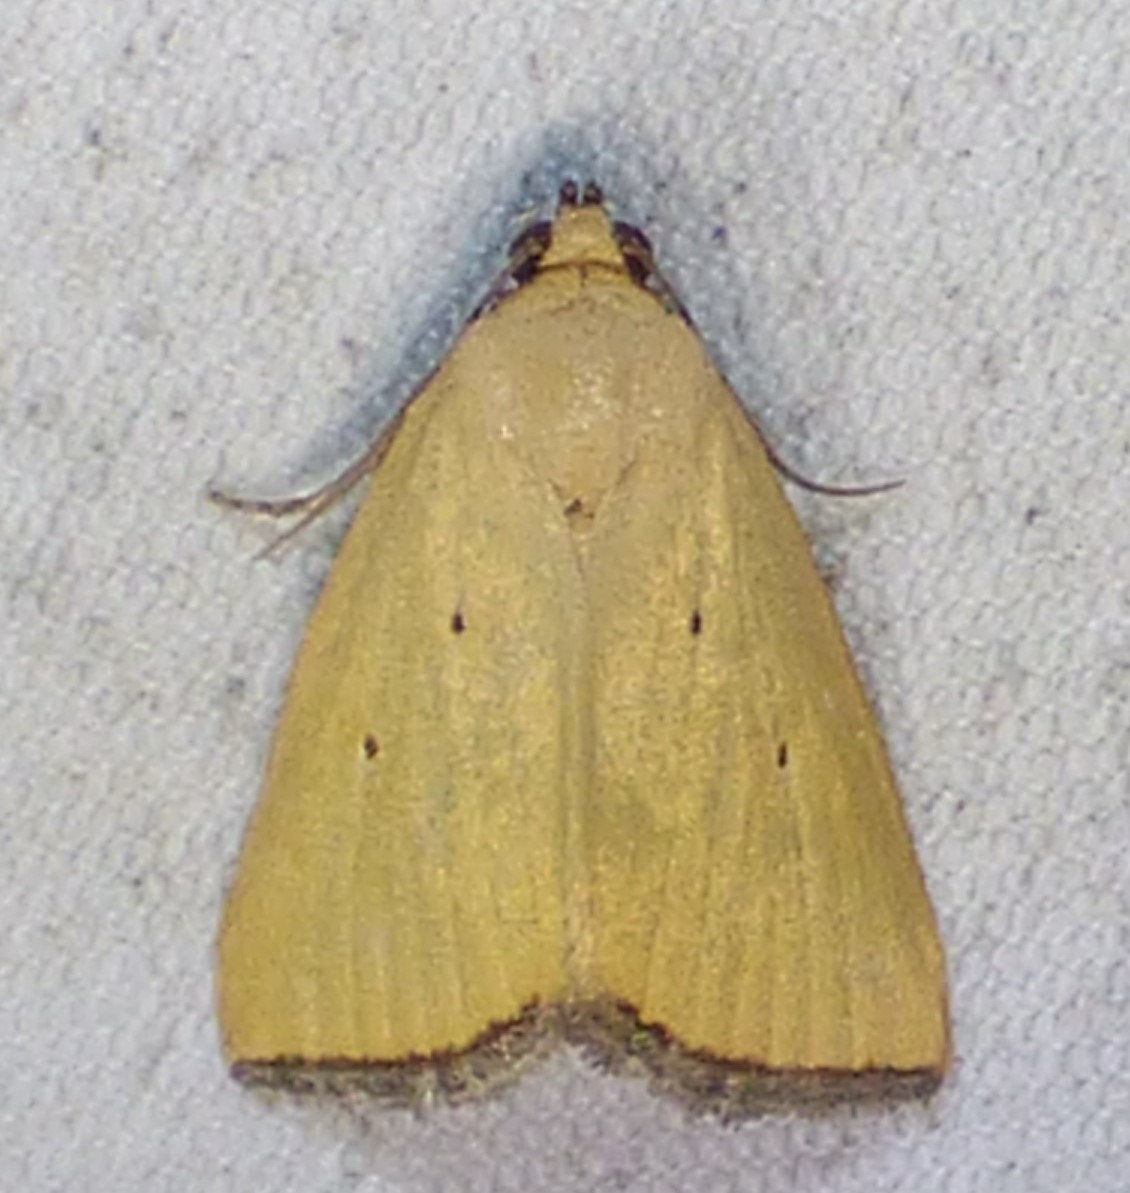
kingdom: Animalia
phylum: Arthropoda
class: Insecta
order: Lepidoptera
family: Noctuidae
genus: Marimatha
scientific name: Marimatha nigrofimbria
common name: Black-bordered lemon moth
